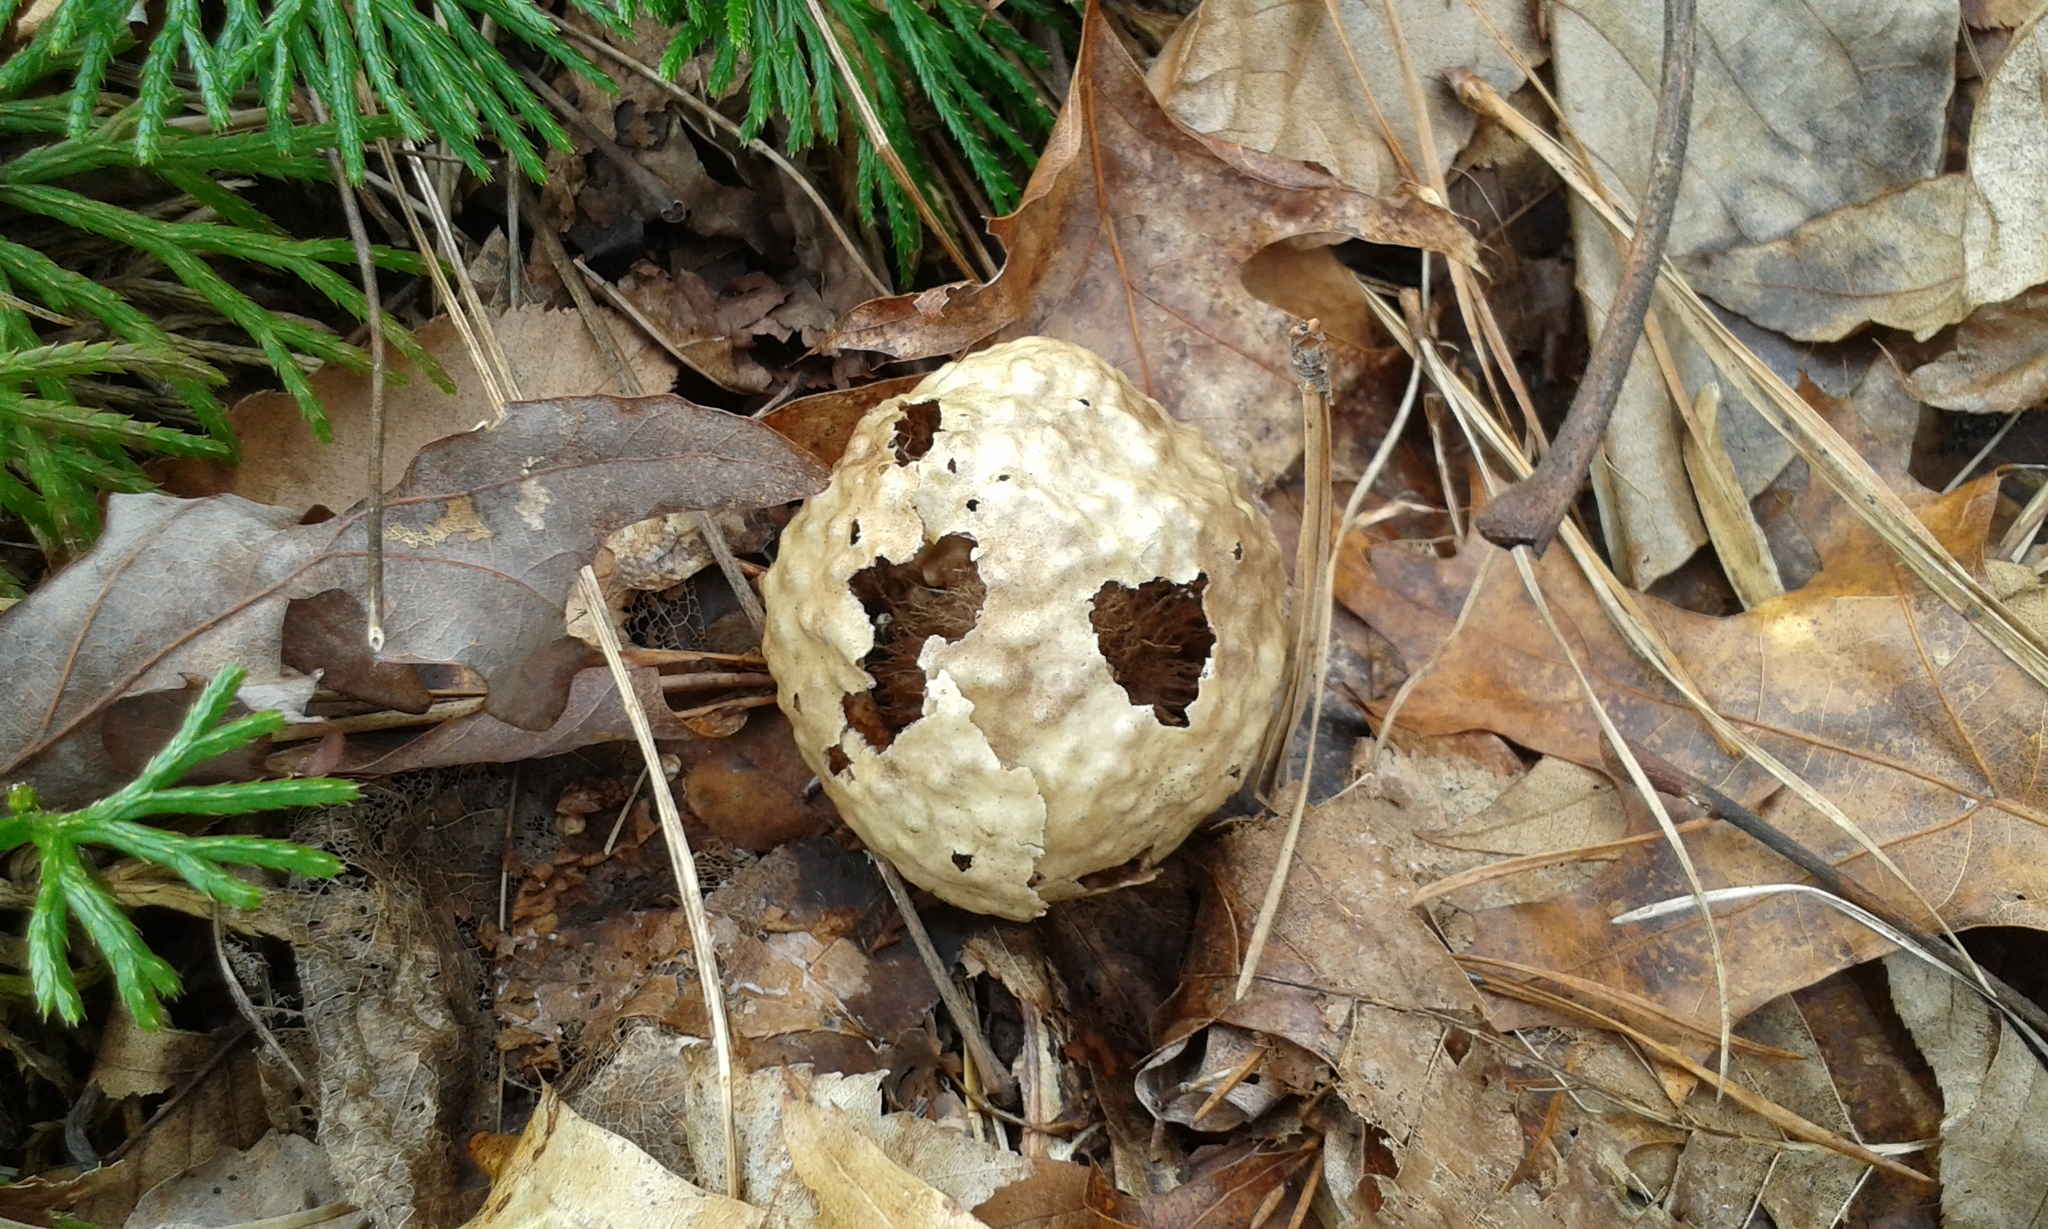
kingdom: Animalia
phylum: Arthropoda
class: Insecta
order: Hymenoptera
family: Cynipidae
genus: Amphibolips
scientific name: Amphibolips
